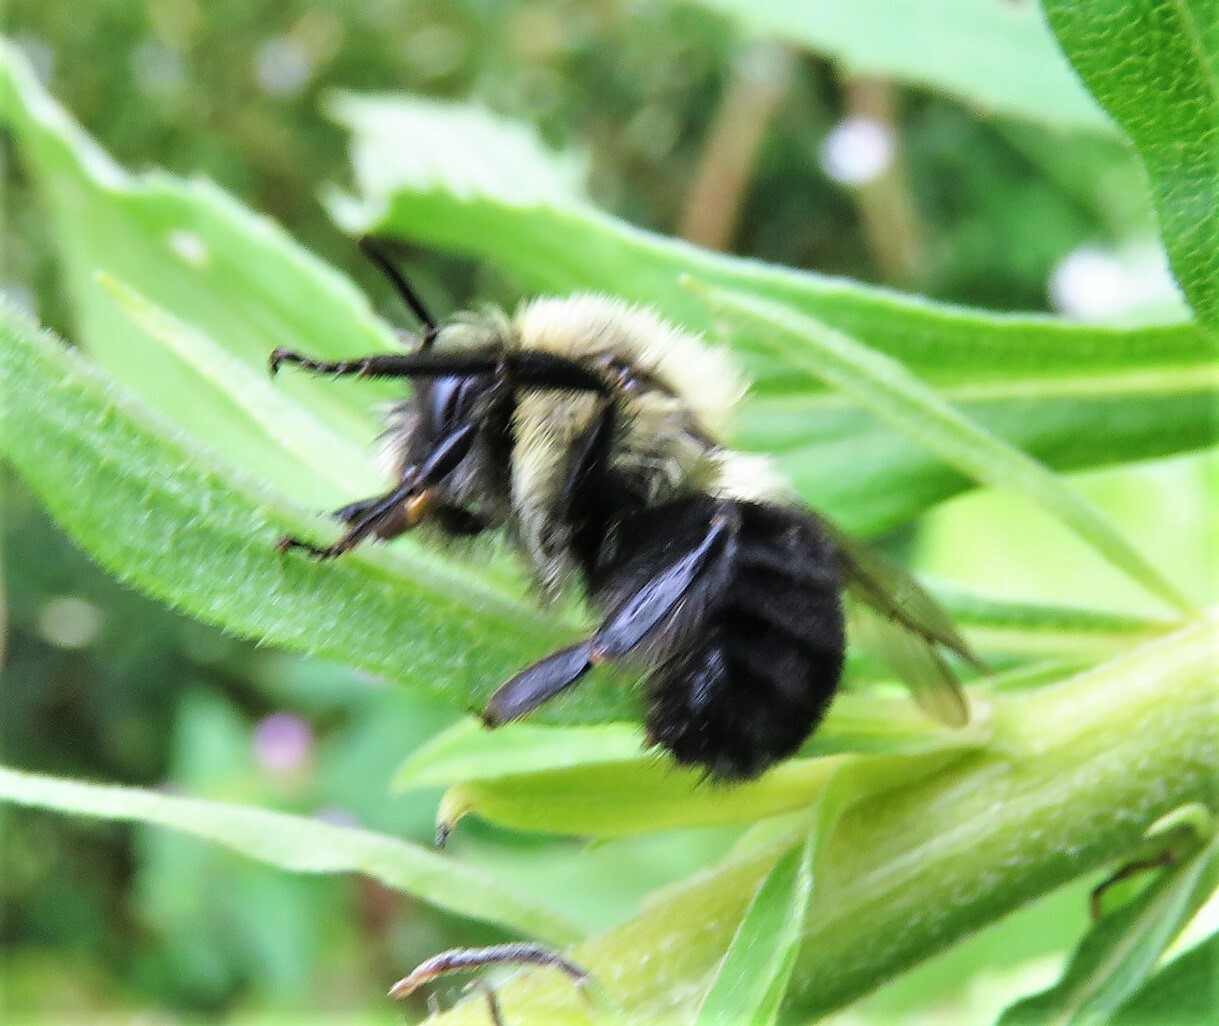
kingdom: Animalia
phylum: Arthropoda
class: Insecta
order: Hymenoptera
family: Apidae
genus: Bombus
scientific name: Bombus impatiens
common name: Common eastern bumble bee
